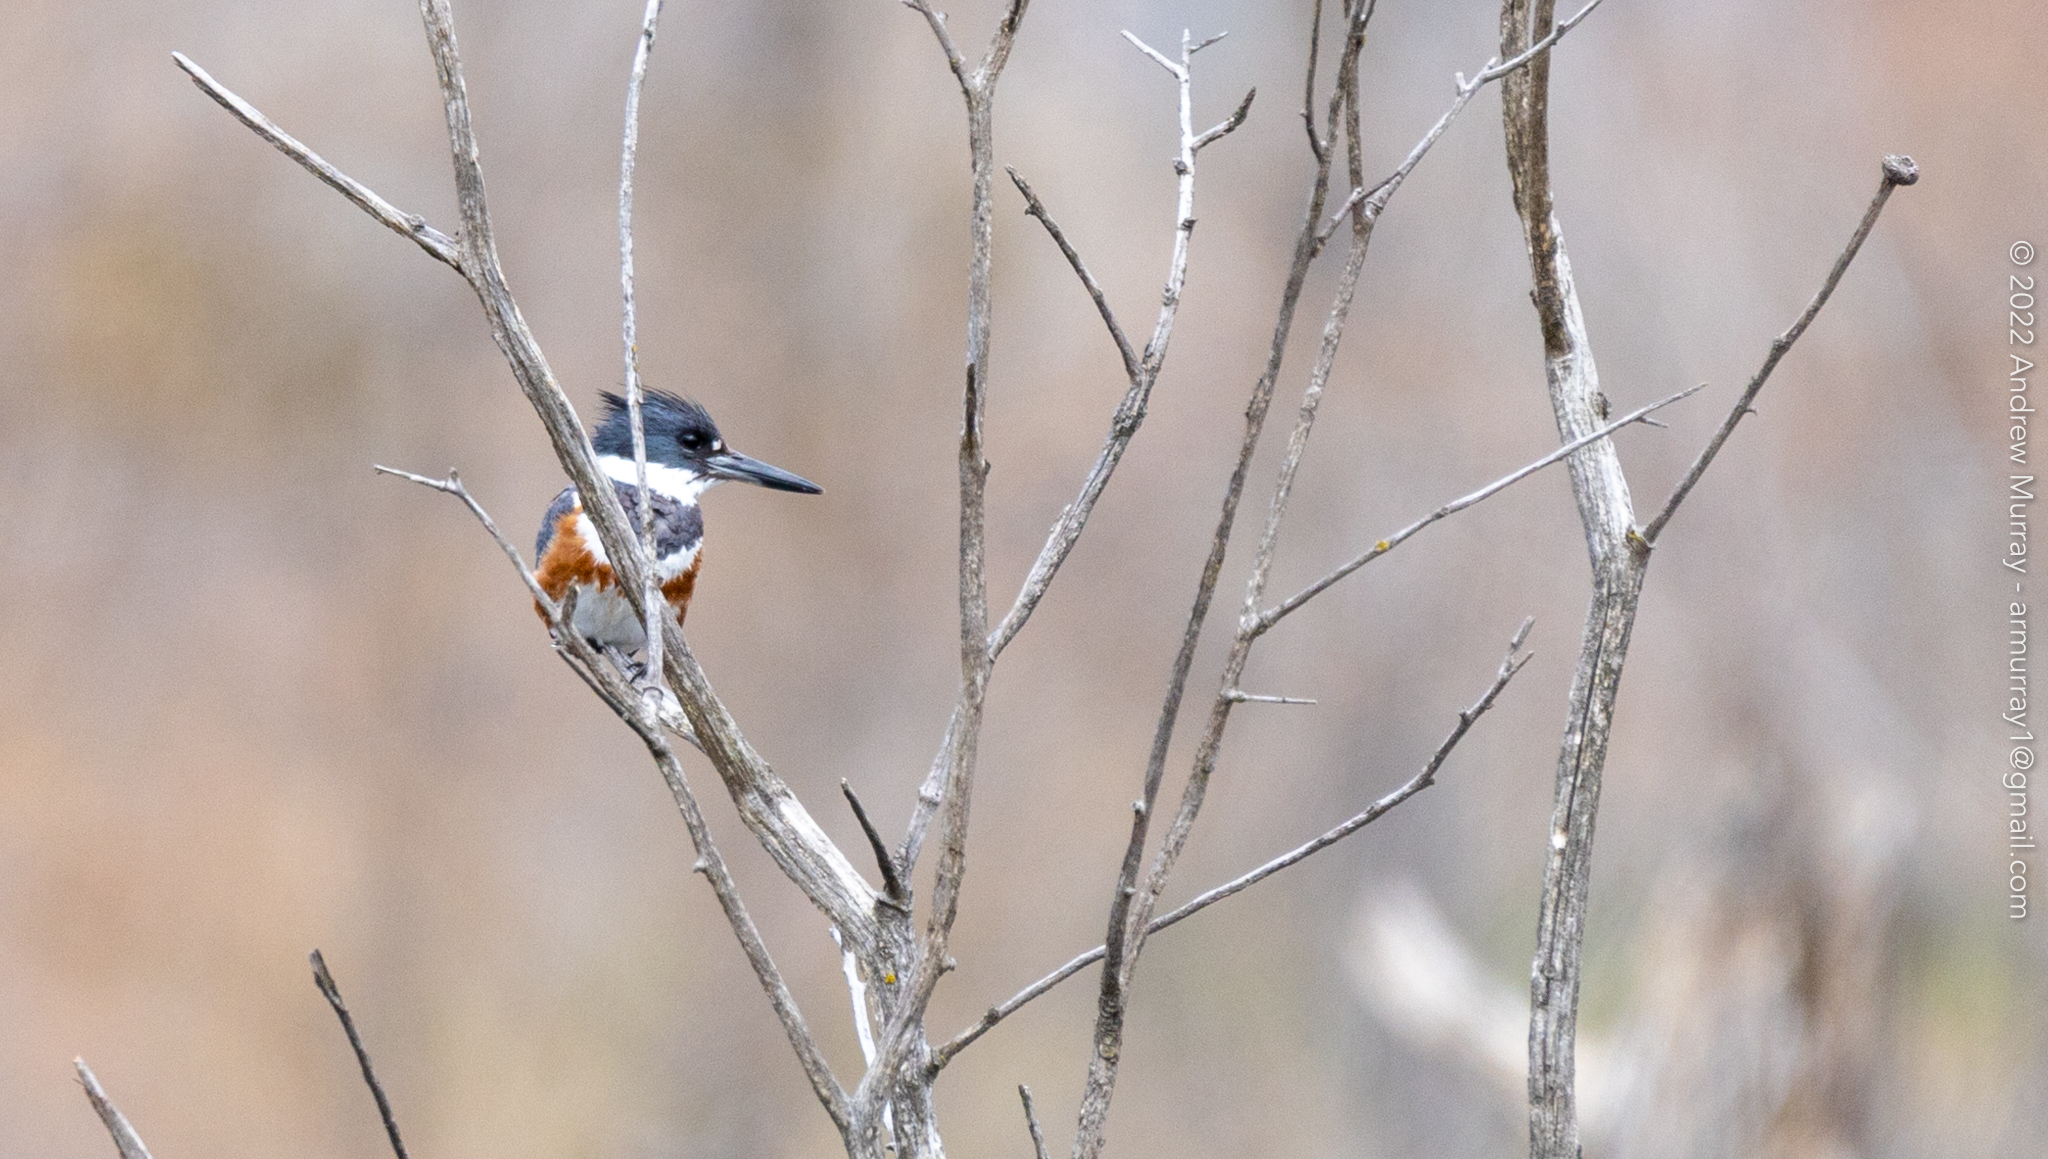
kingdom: Animalia
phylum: Chordata
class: Aves
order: Coraciiformes
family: Alcedinidae
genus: Megaceryle
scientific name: Megaceryle alcyon
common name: Belted kingfisher
